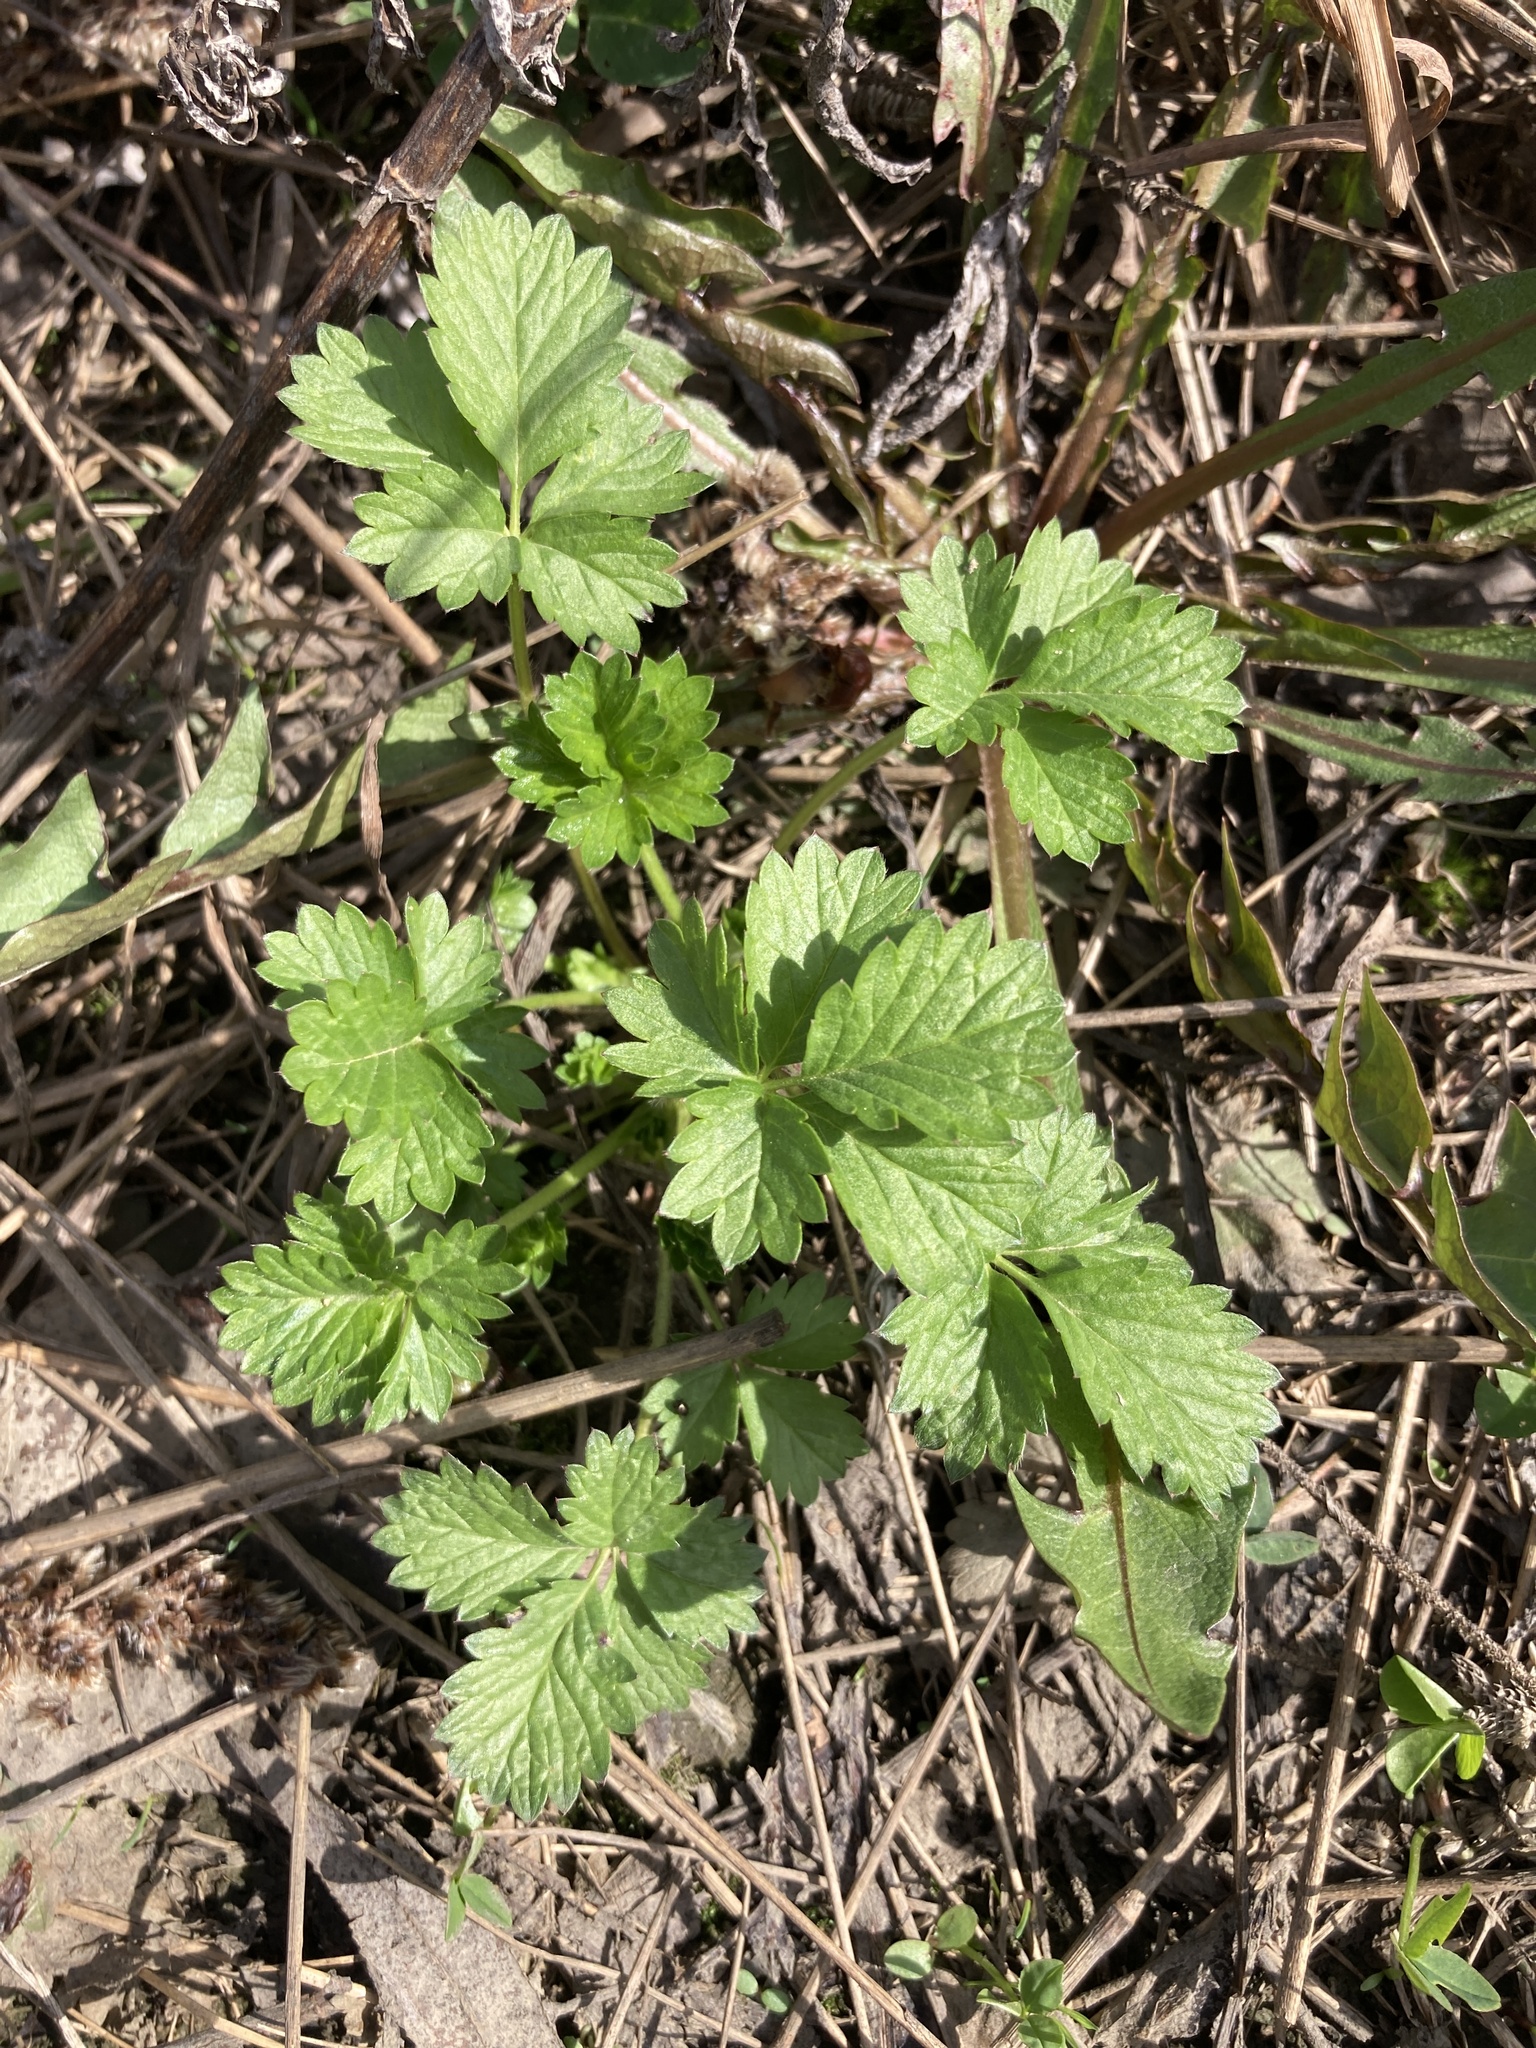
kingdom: Plantae
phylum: Tracheophyta
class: Magnoliopsida
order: Rosales
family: Rosaceae
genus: Potentilla
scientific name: Potentilla intermedia
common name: Downy cinquefoil
